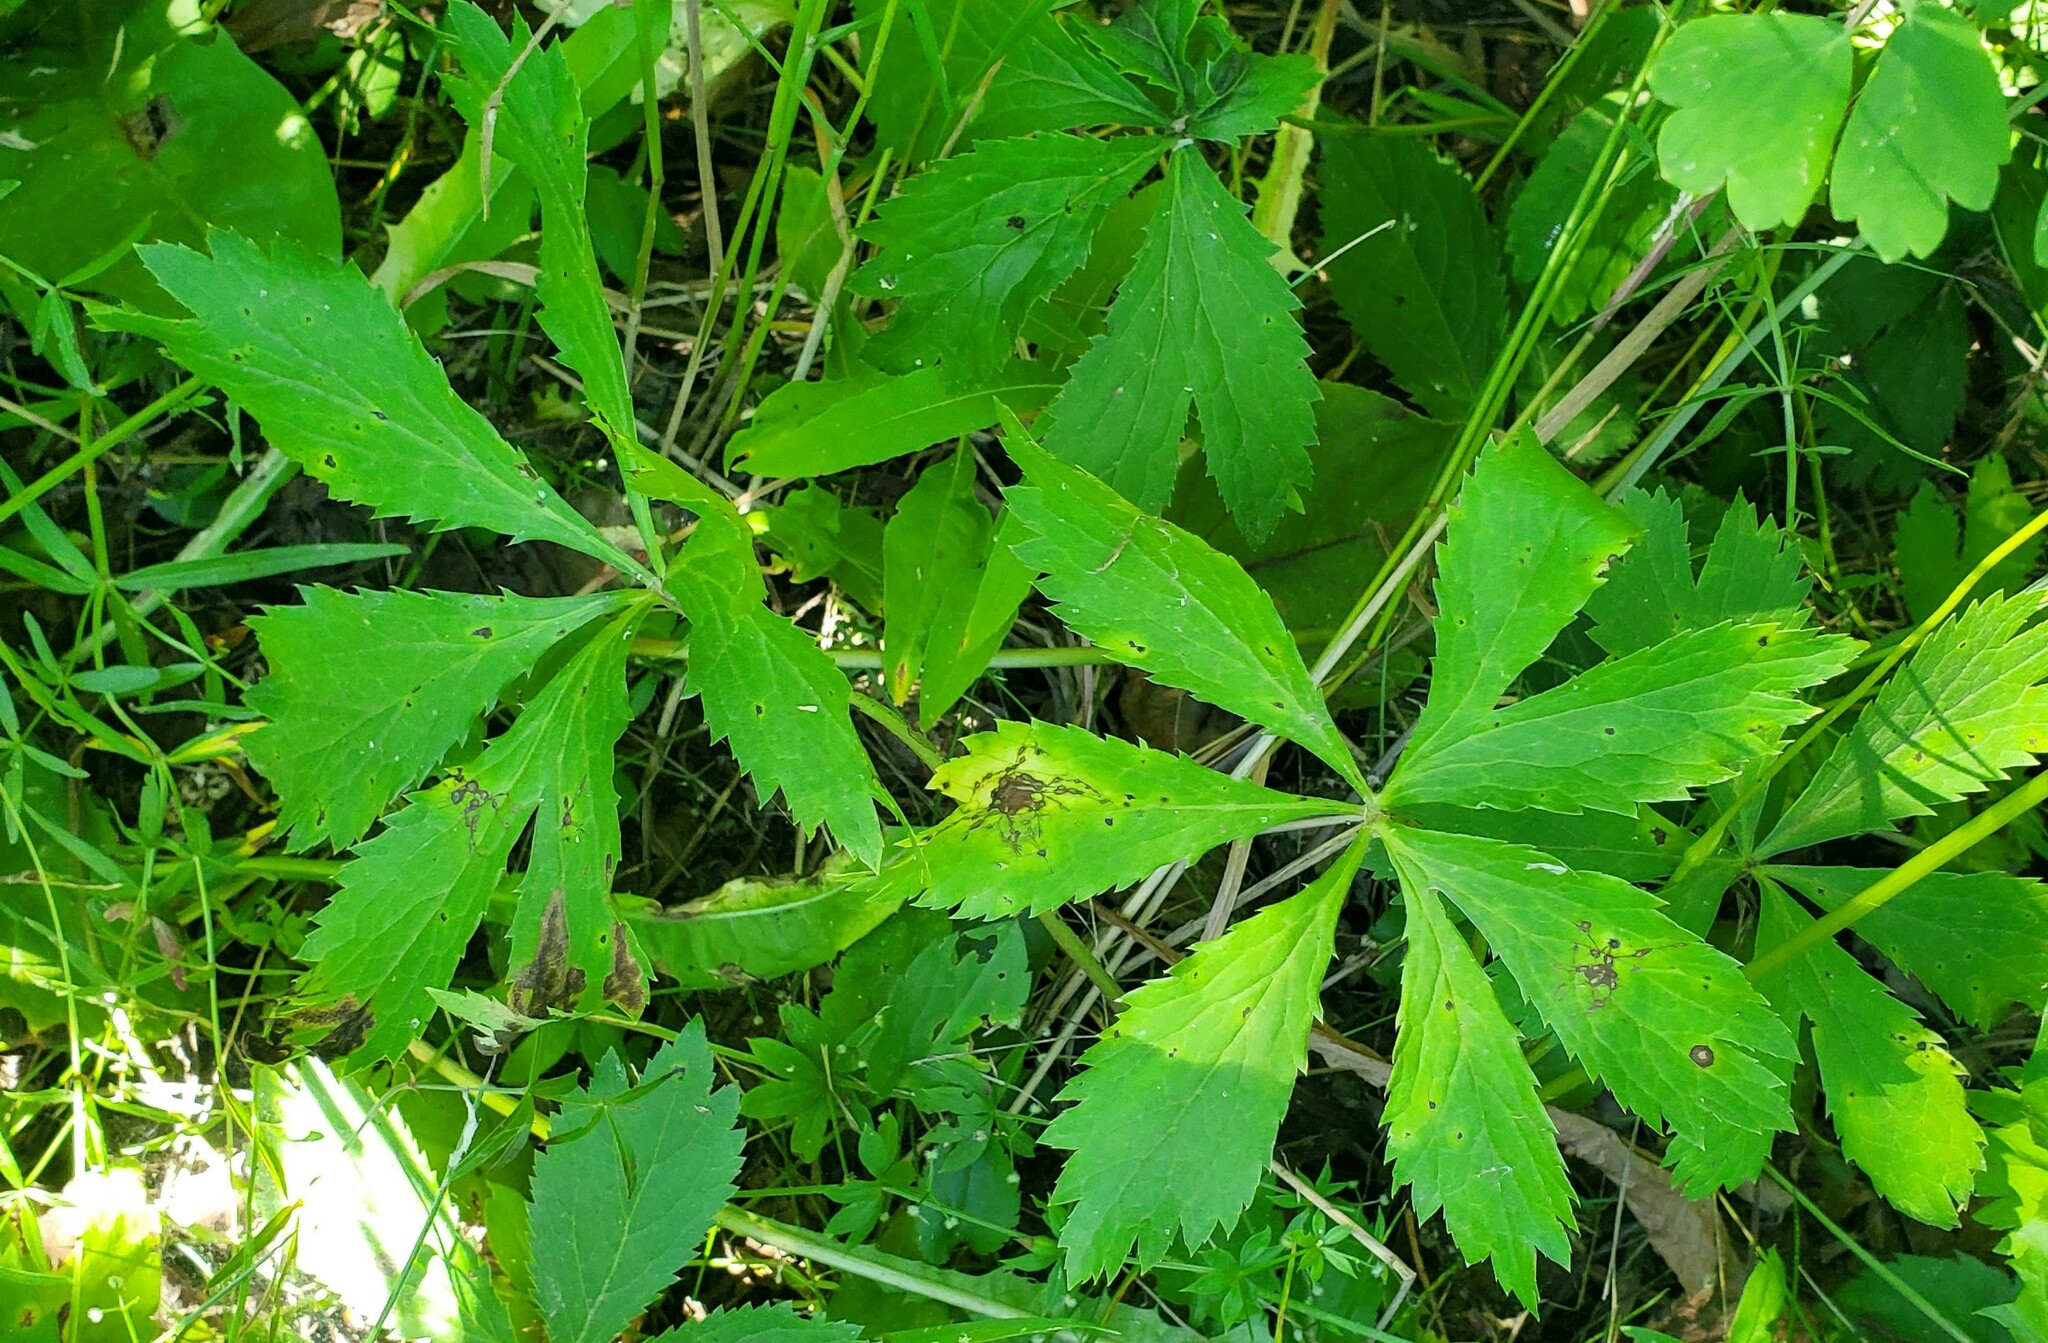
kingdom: Plantae
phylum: Tracheophyta
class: Magnoliopsida
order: Apiales
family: Apiaceae
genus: Sanicula
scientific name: Sanicula marilandica
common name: Black snakeroot
